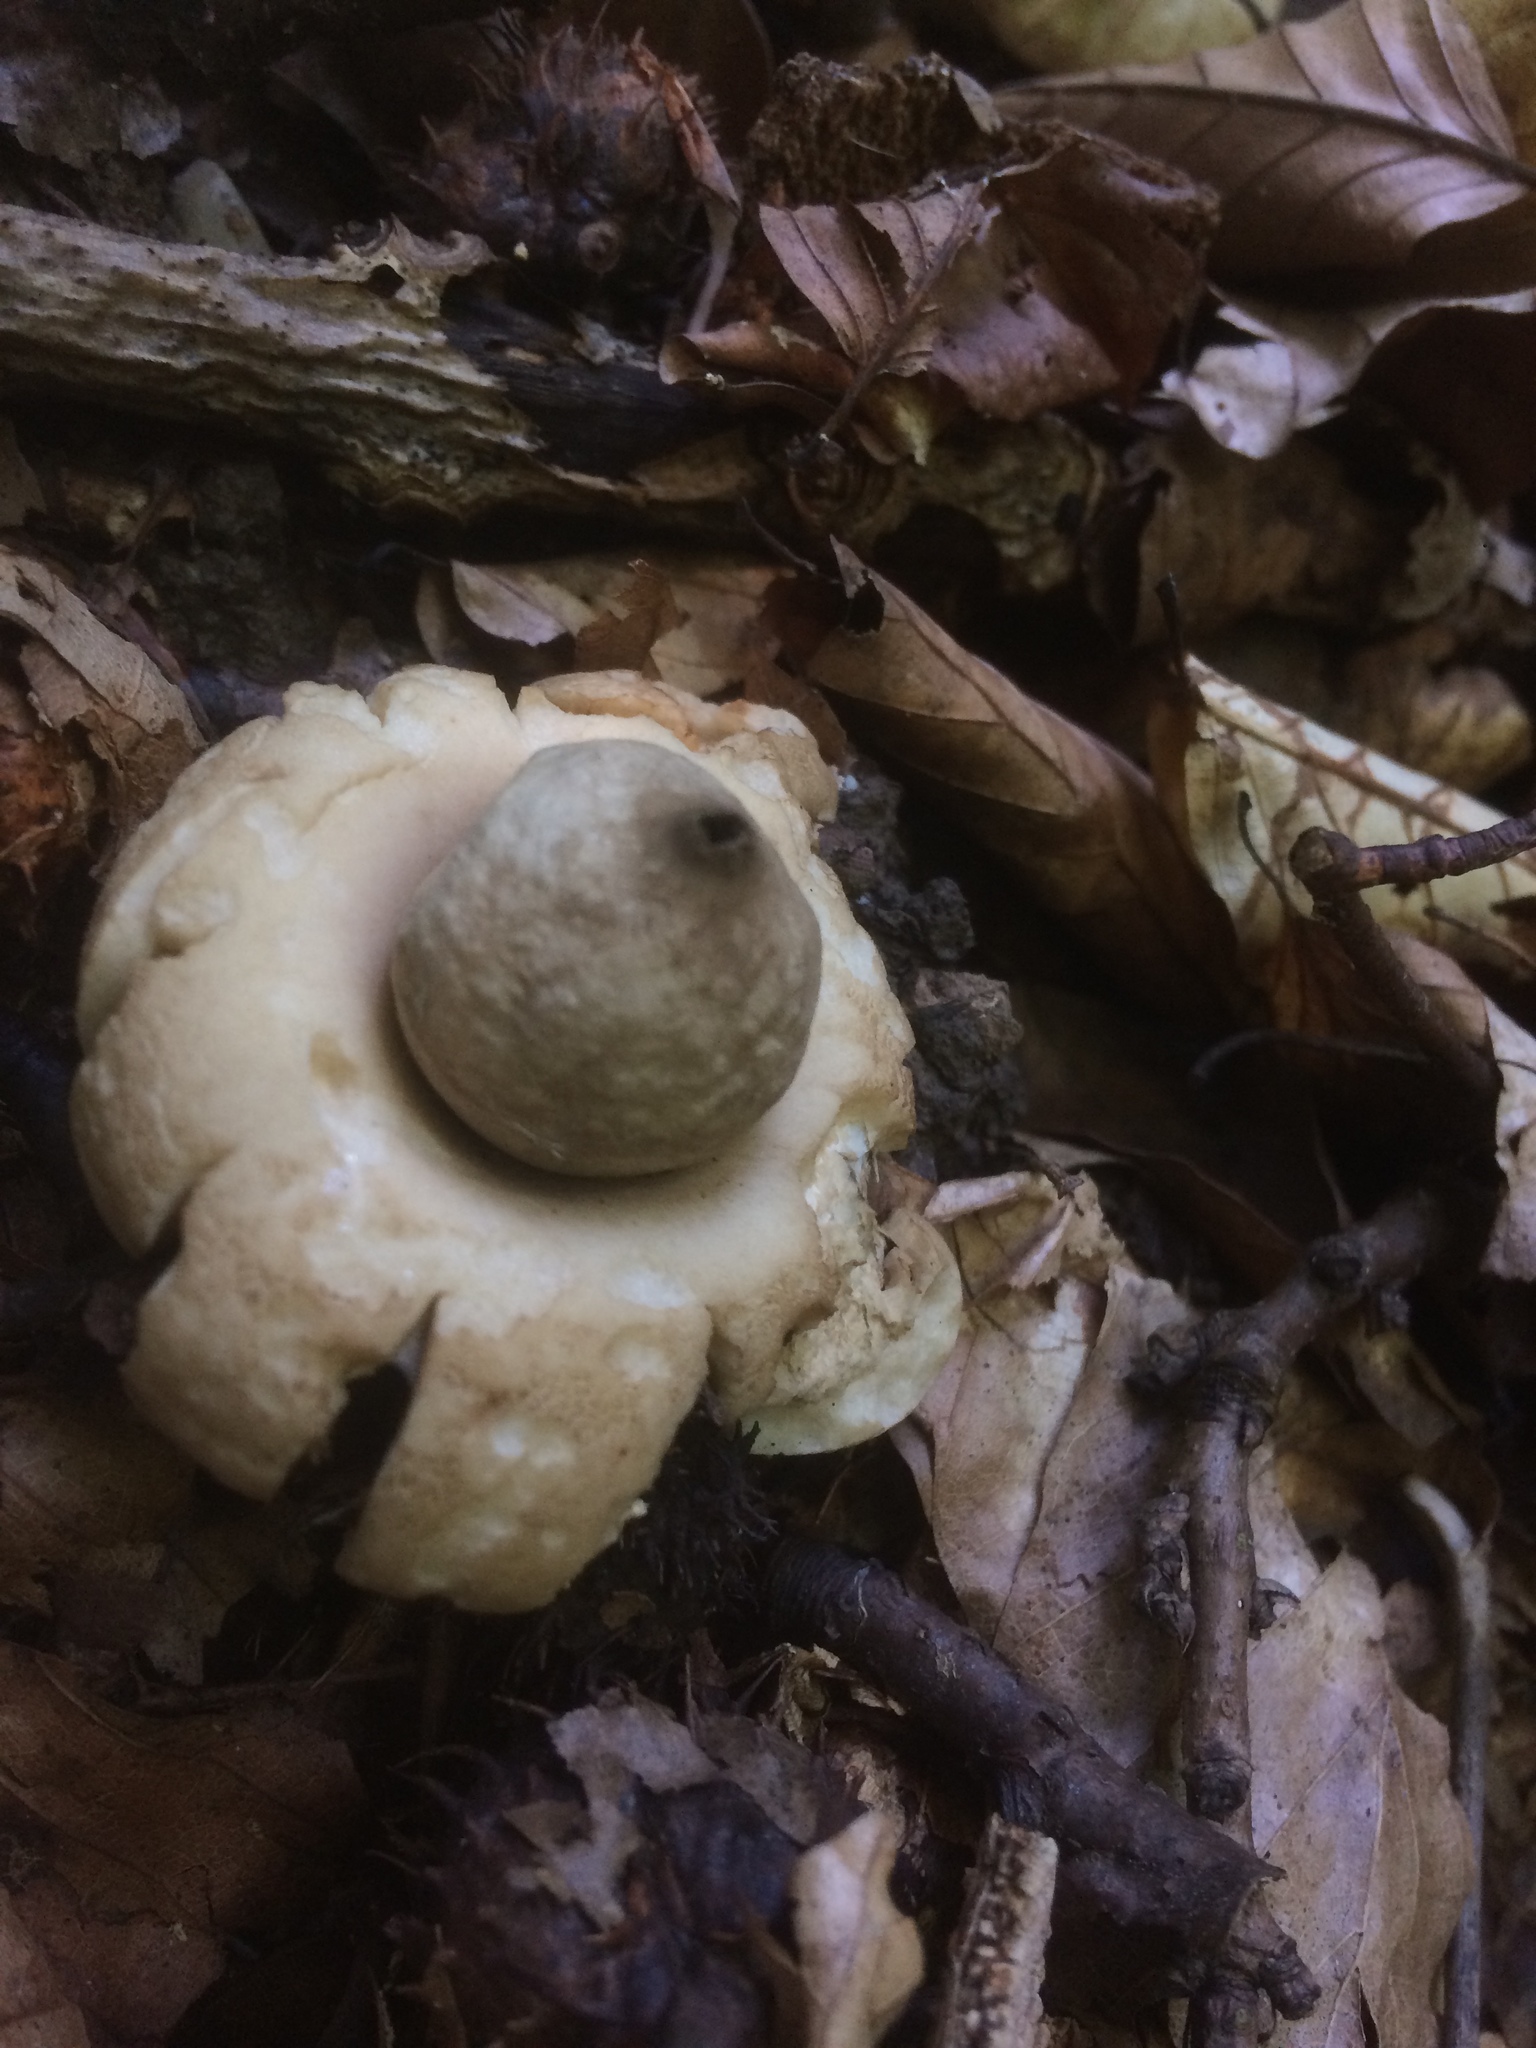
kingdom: Fungi
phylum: Basidiomycota
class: Agaricomycetes
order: Geastrales
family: Geastraceae
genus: Geastrum
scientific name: Geastrum fimbriatum
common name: Sessile earthstar
